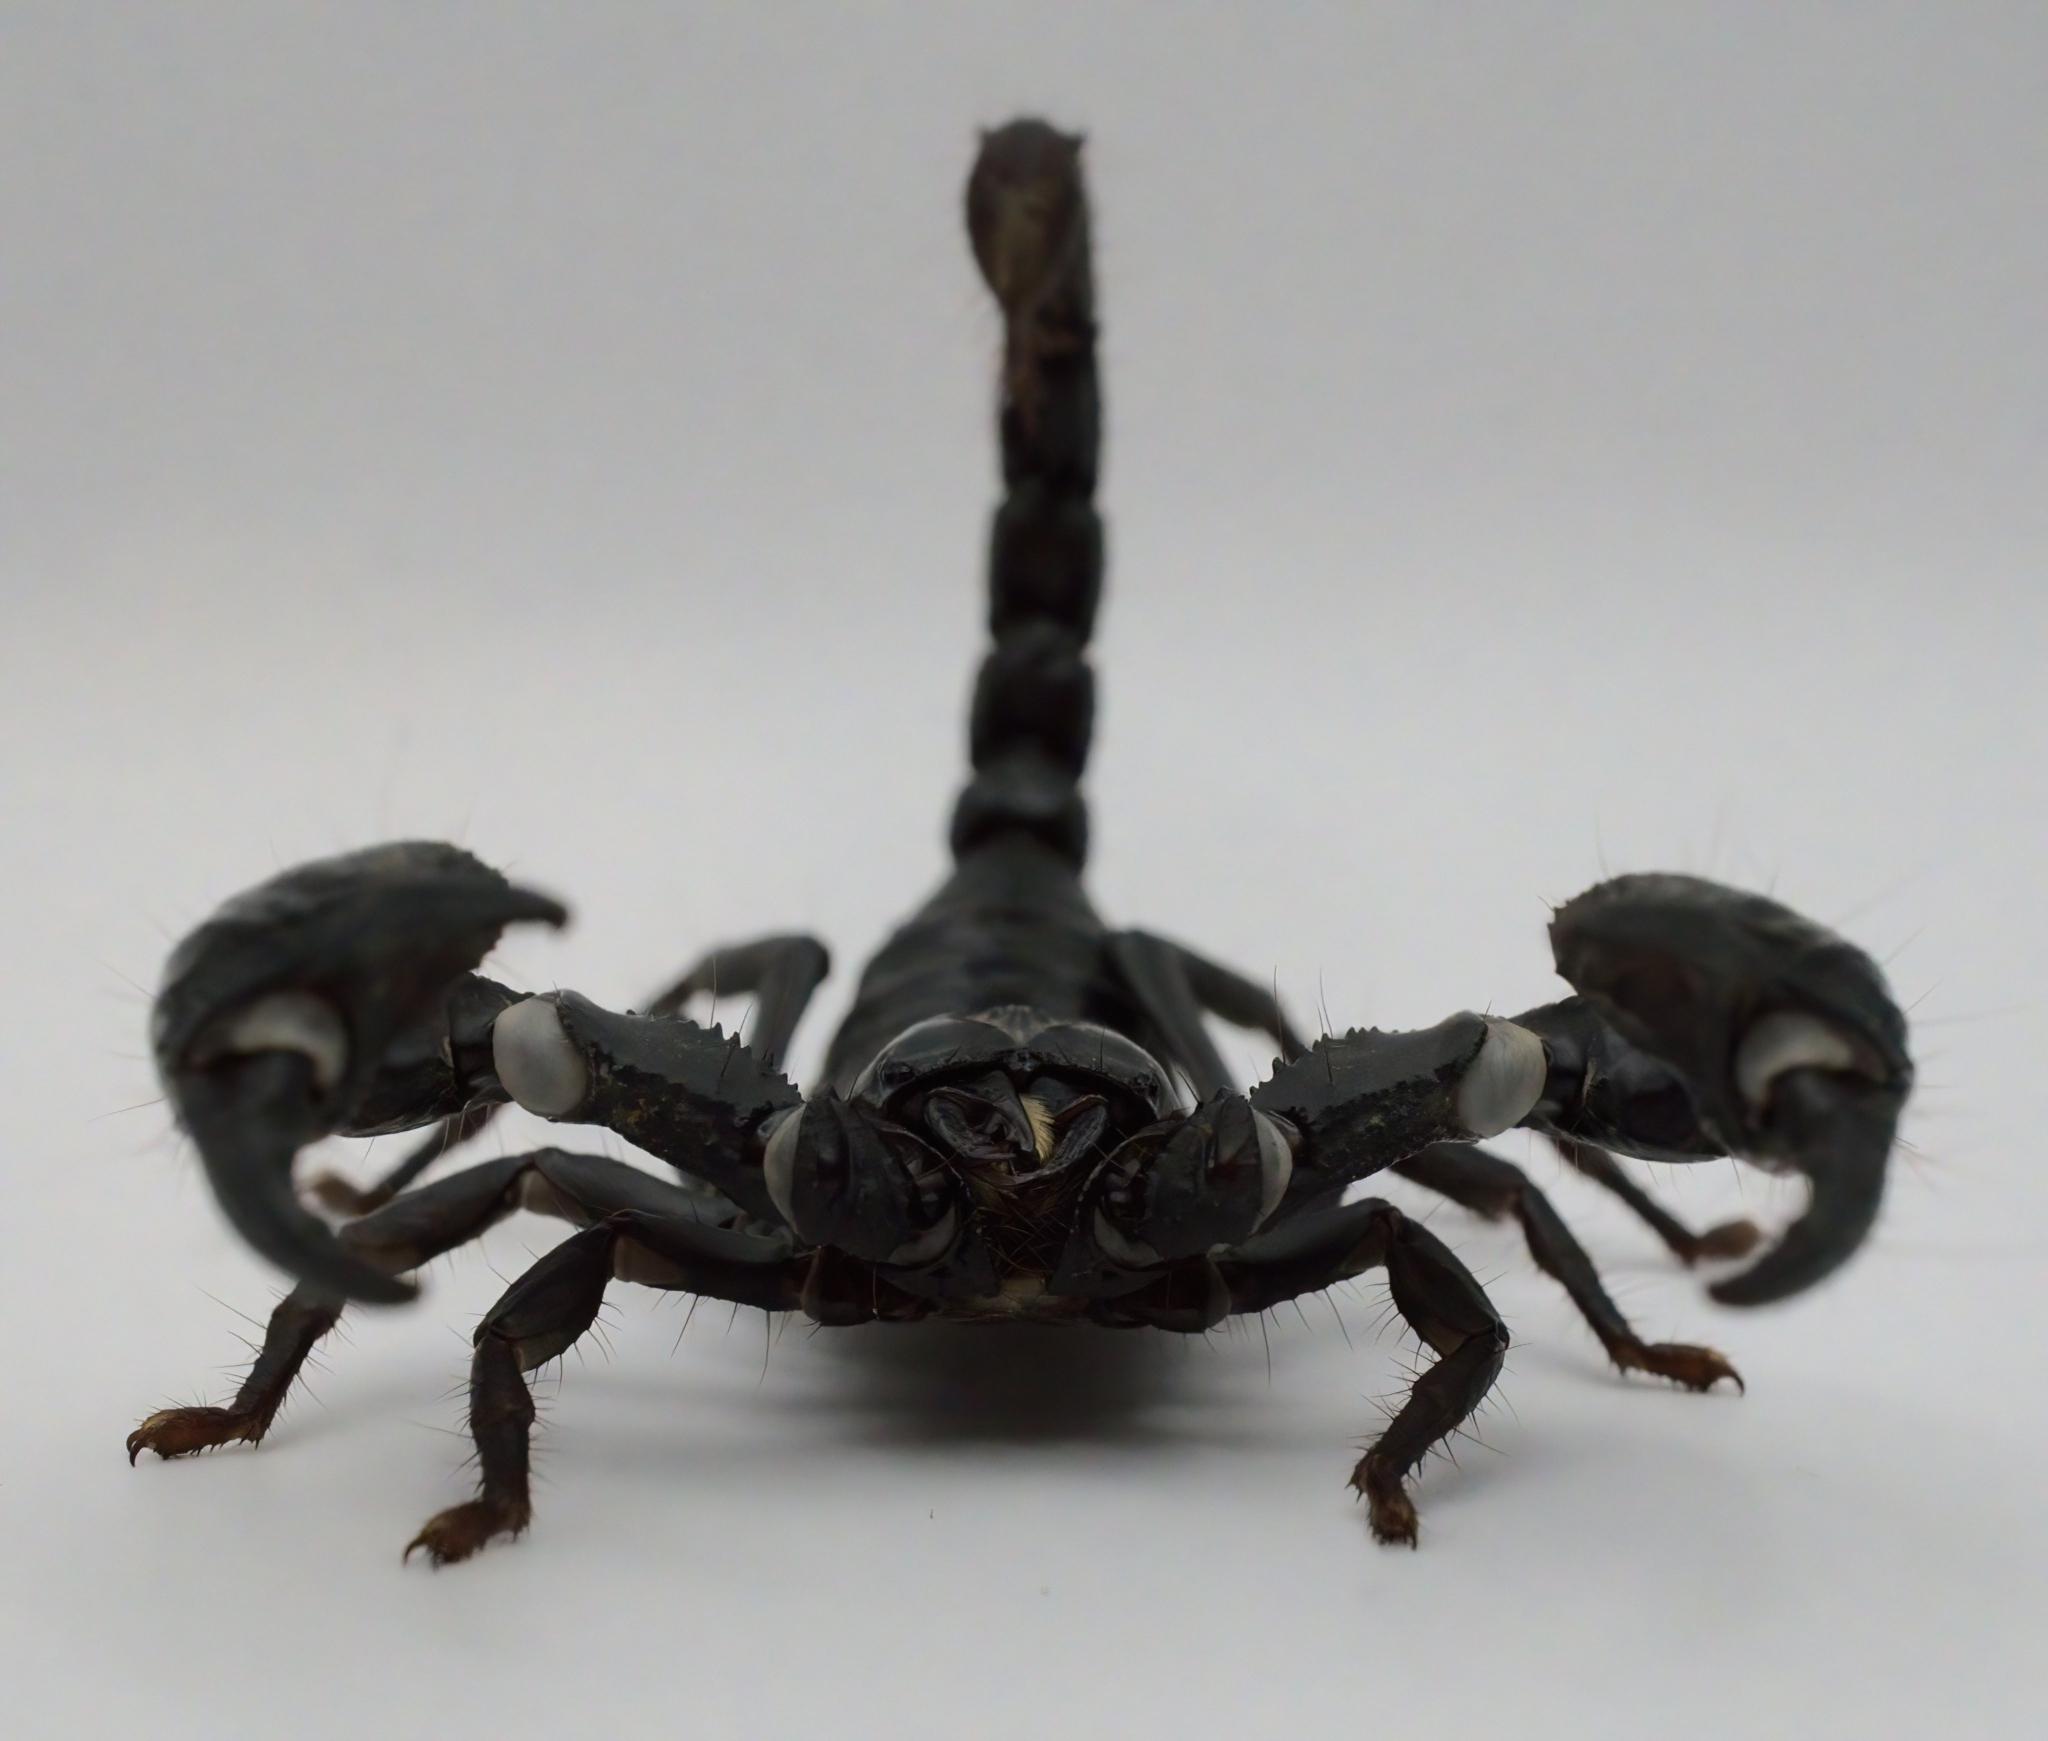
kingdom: Animalia
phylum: Arthropoda
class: Arachnida
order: Scorpiones
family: Scorpionidae
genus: Heterometrus
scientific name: Heterometrus silenus
